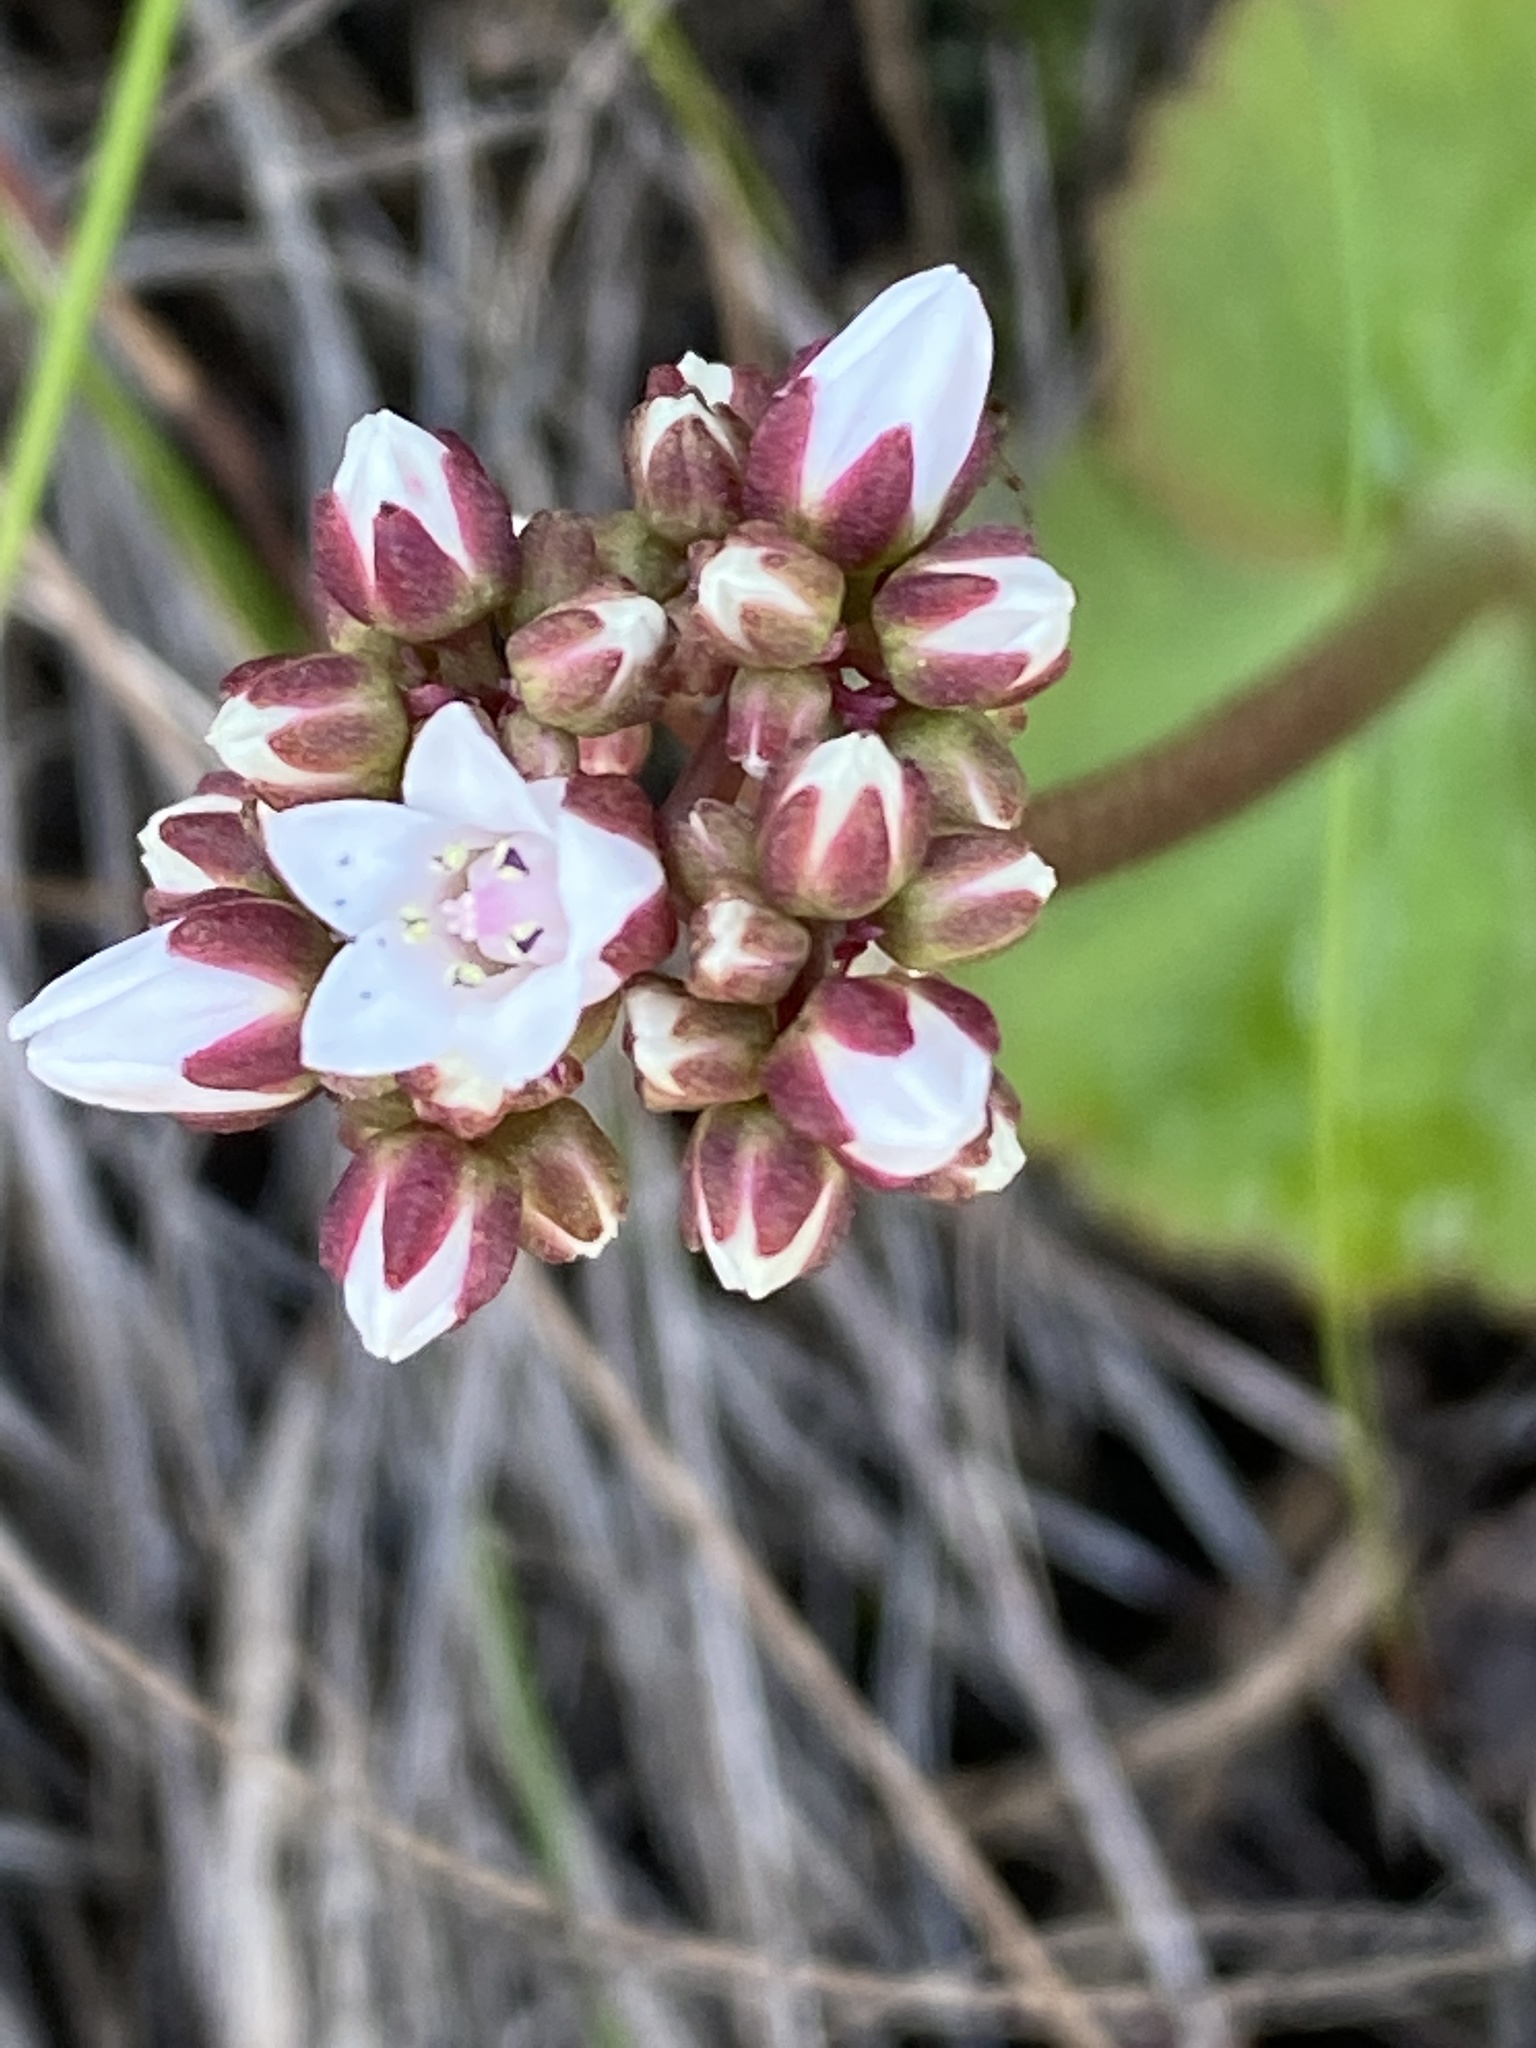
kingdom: Plantae
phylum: Tracheophyta
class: Magnoliopsida
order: Saxifragales
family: Crassulaceae
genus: Crassula
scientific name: Crassula saxifraga
